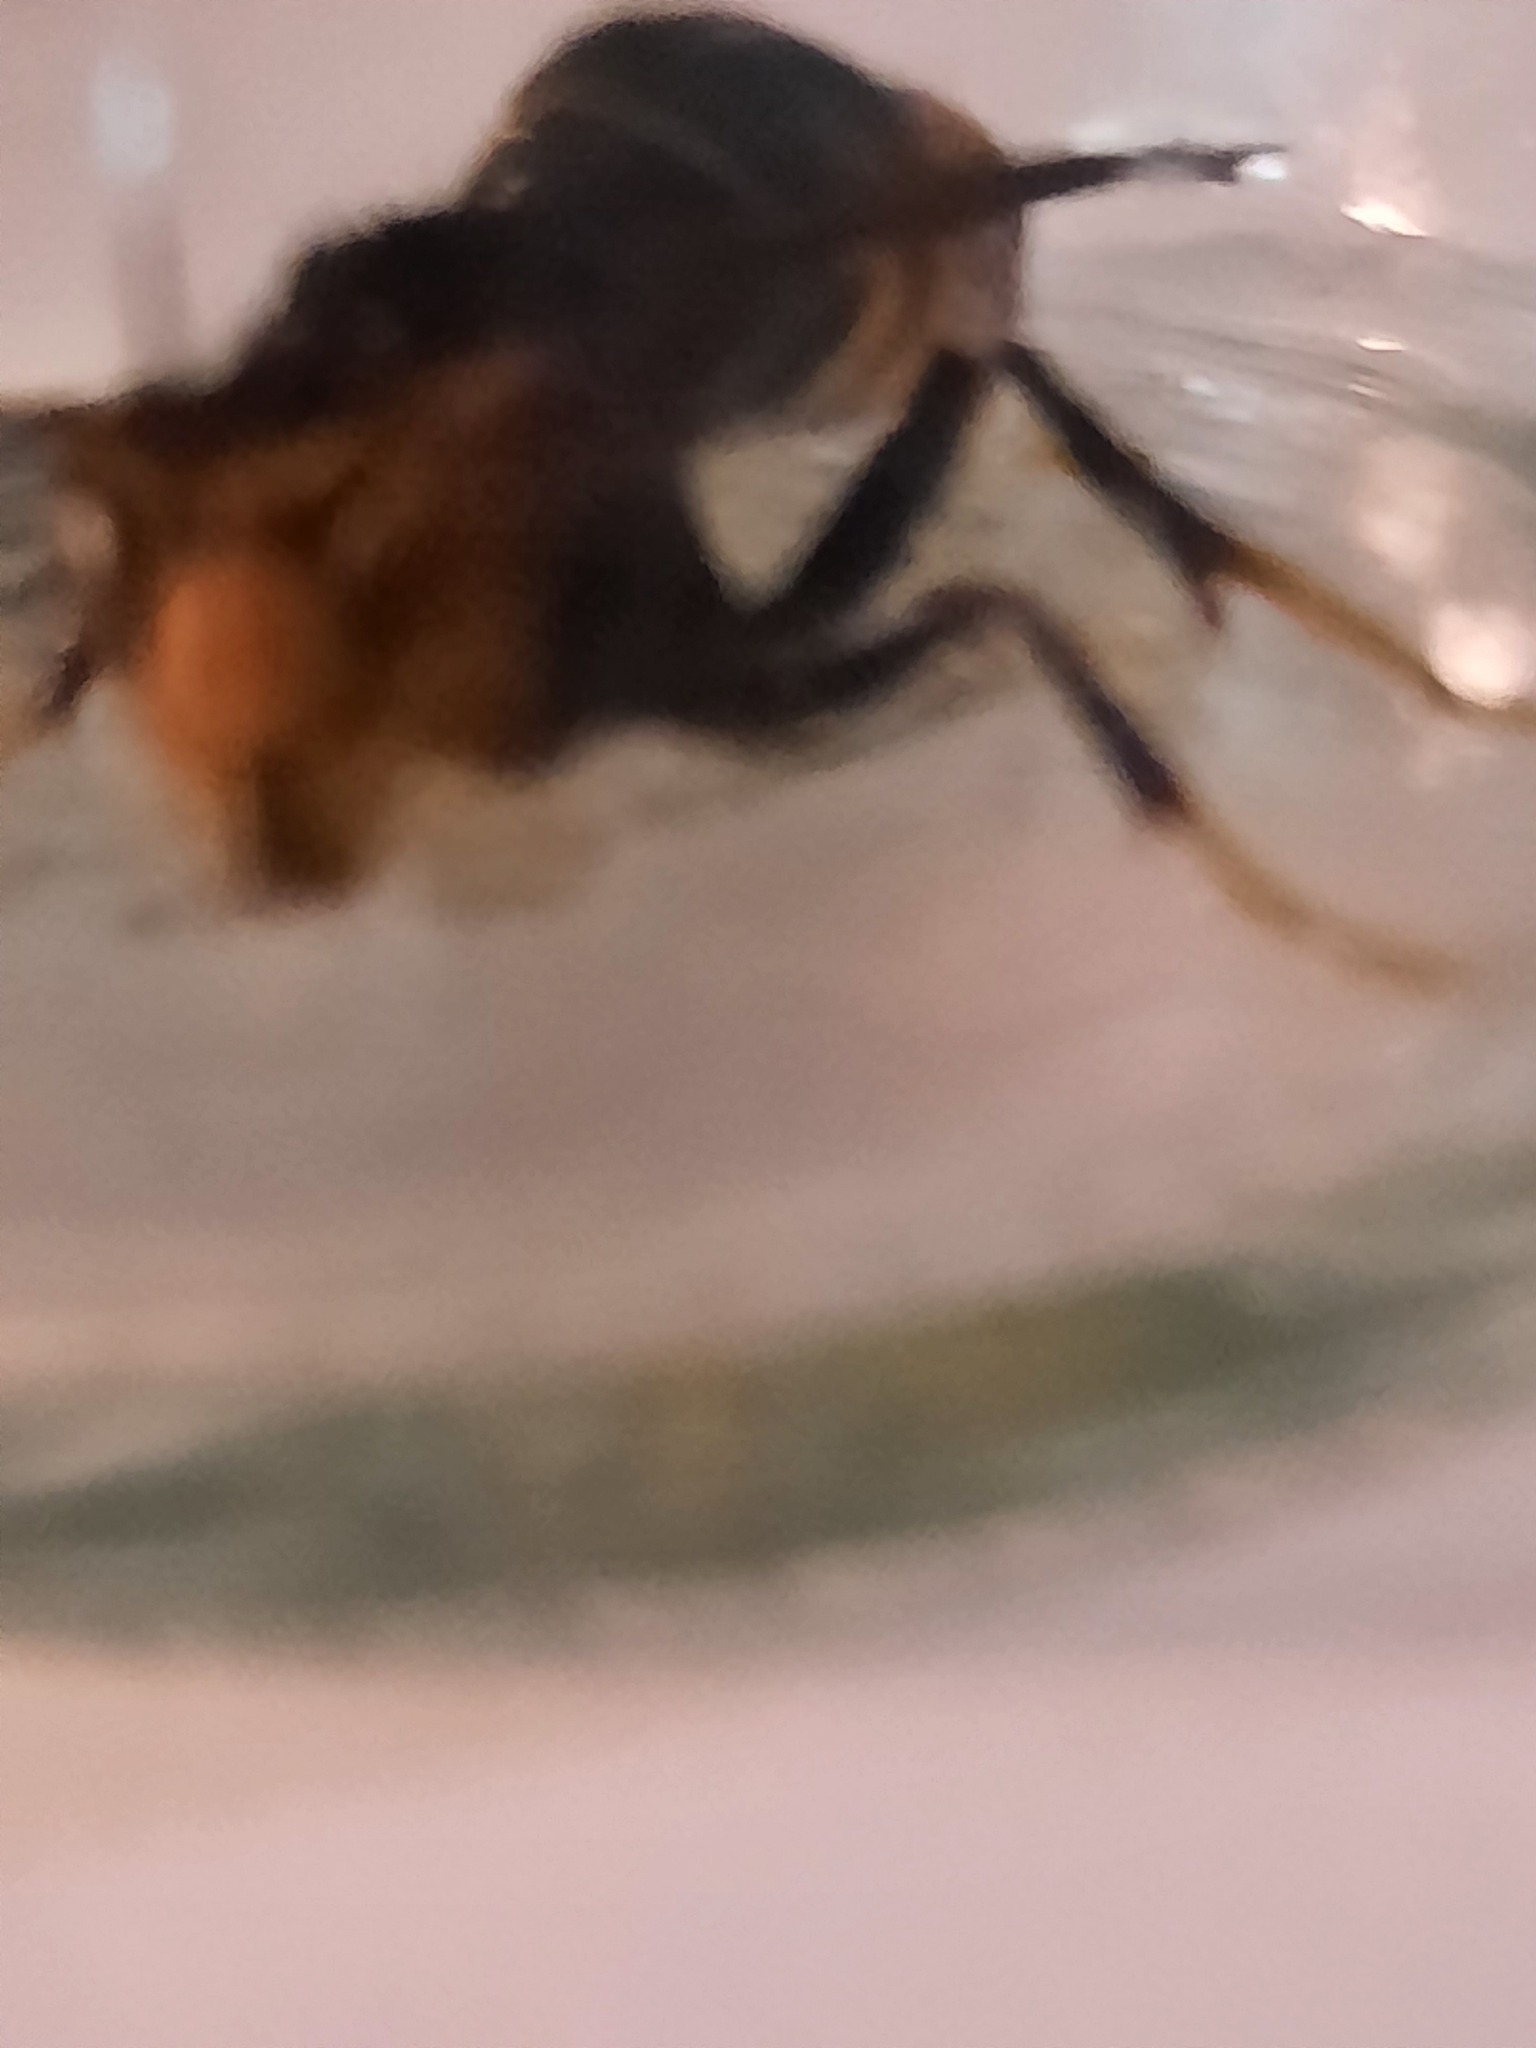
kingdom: Animalia
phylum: Arthropoda
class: Insecta
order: Hymenoptera
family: Vespidae
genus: Vespa
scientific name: Vespa velutina
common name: Asian hornet
